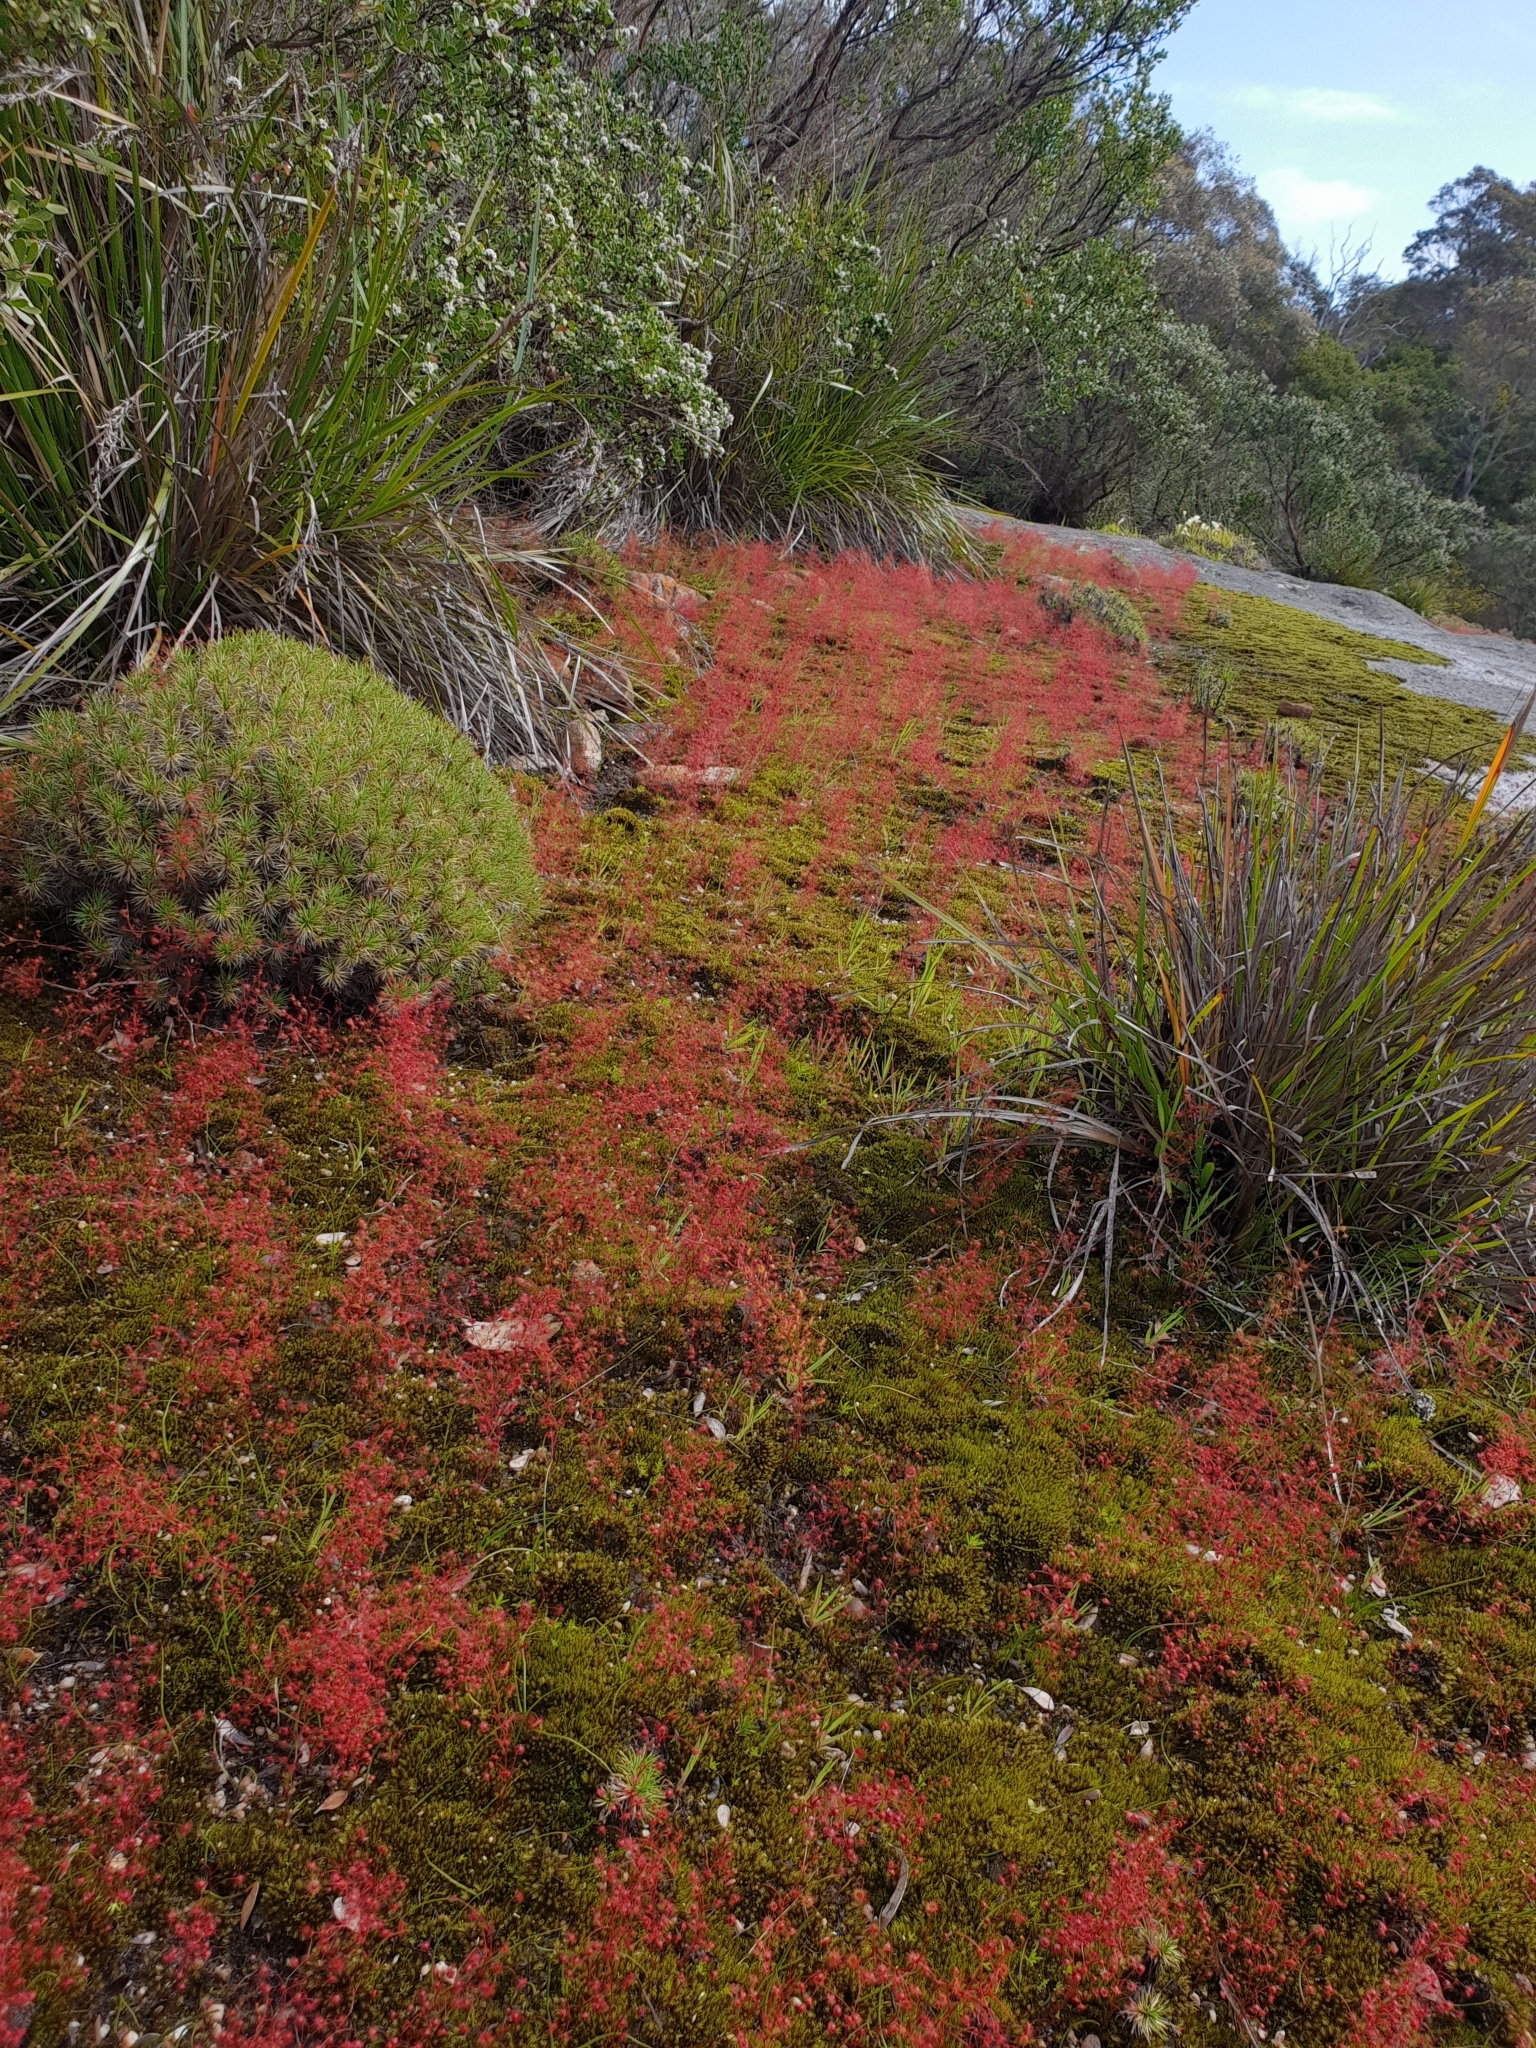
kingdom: Plantae
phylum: Tracheophyta
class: Magnoliopsida
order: Caryophyllales
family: Droseraceae
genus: Drosera
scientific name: Drosera
